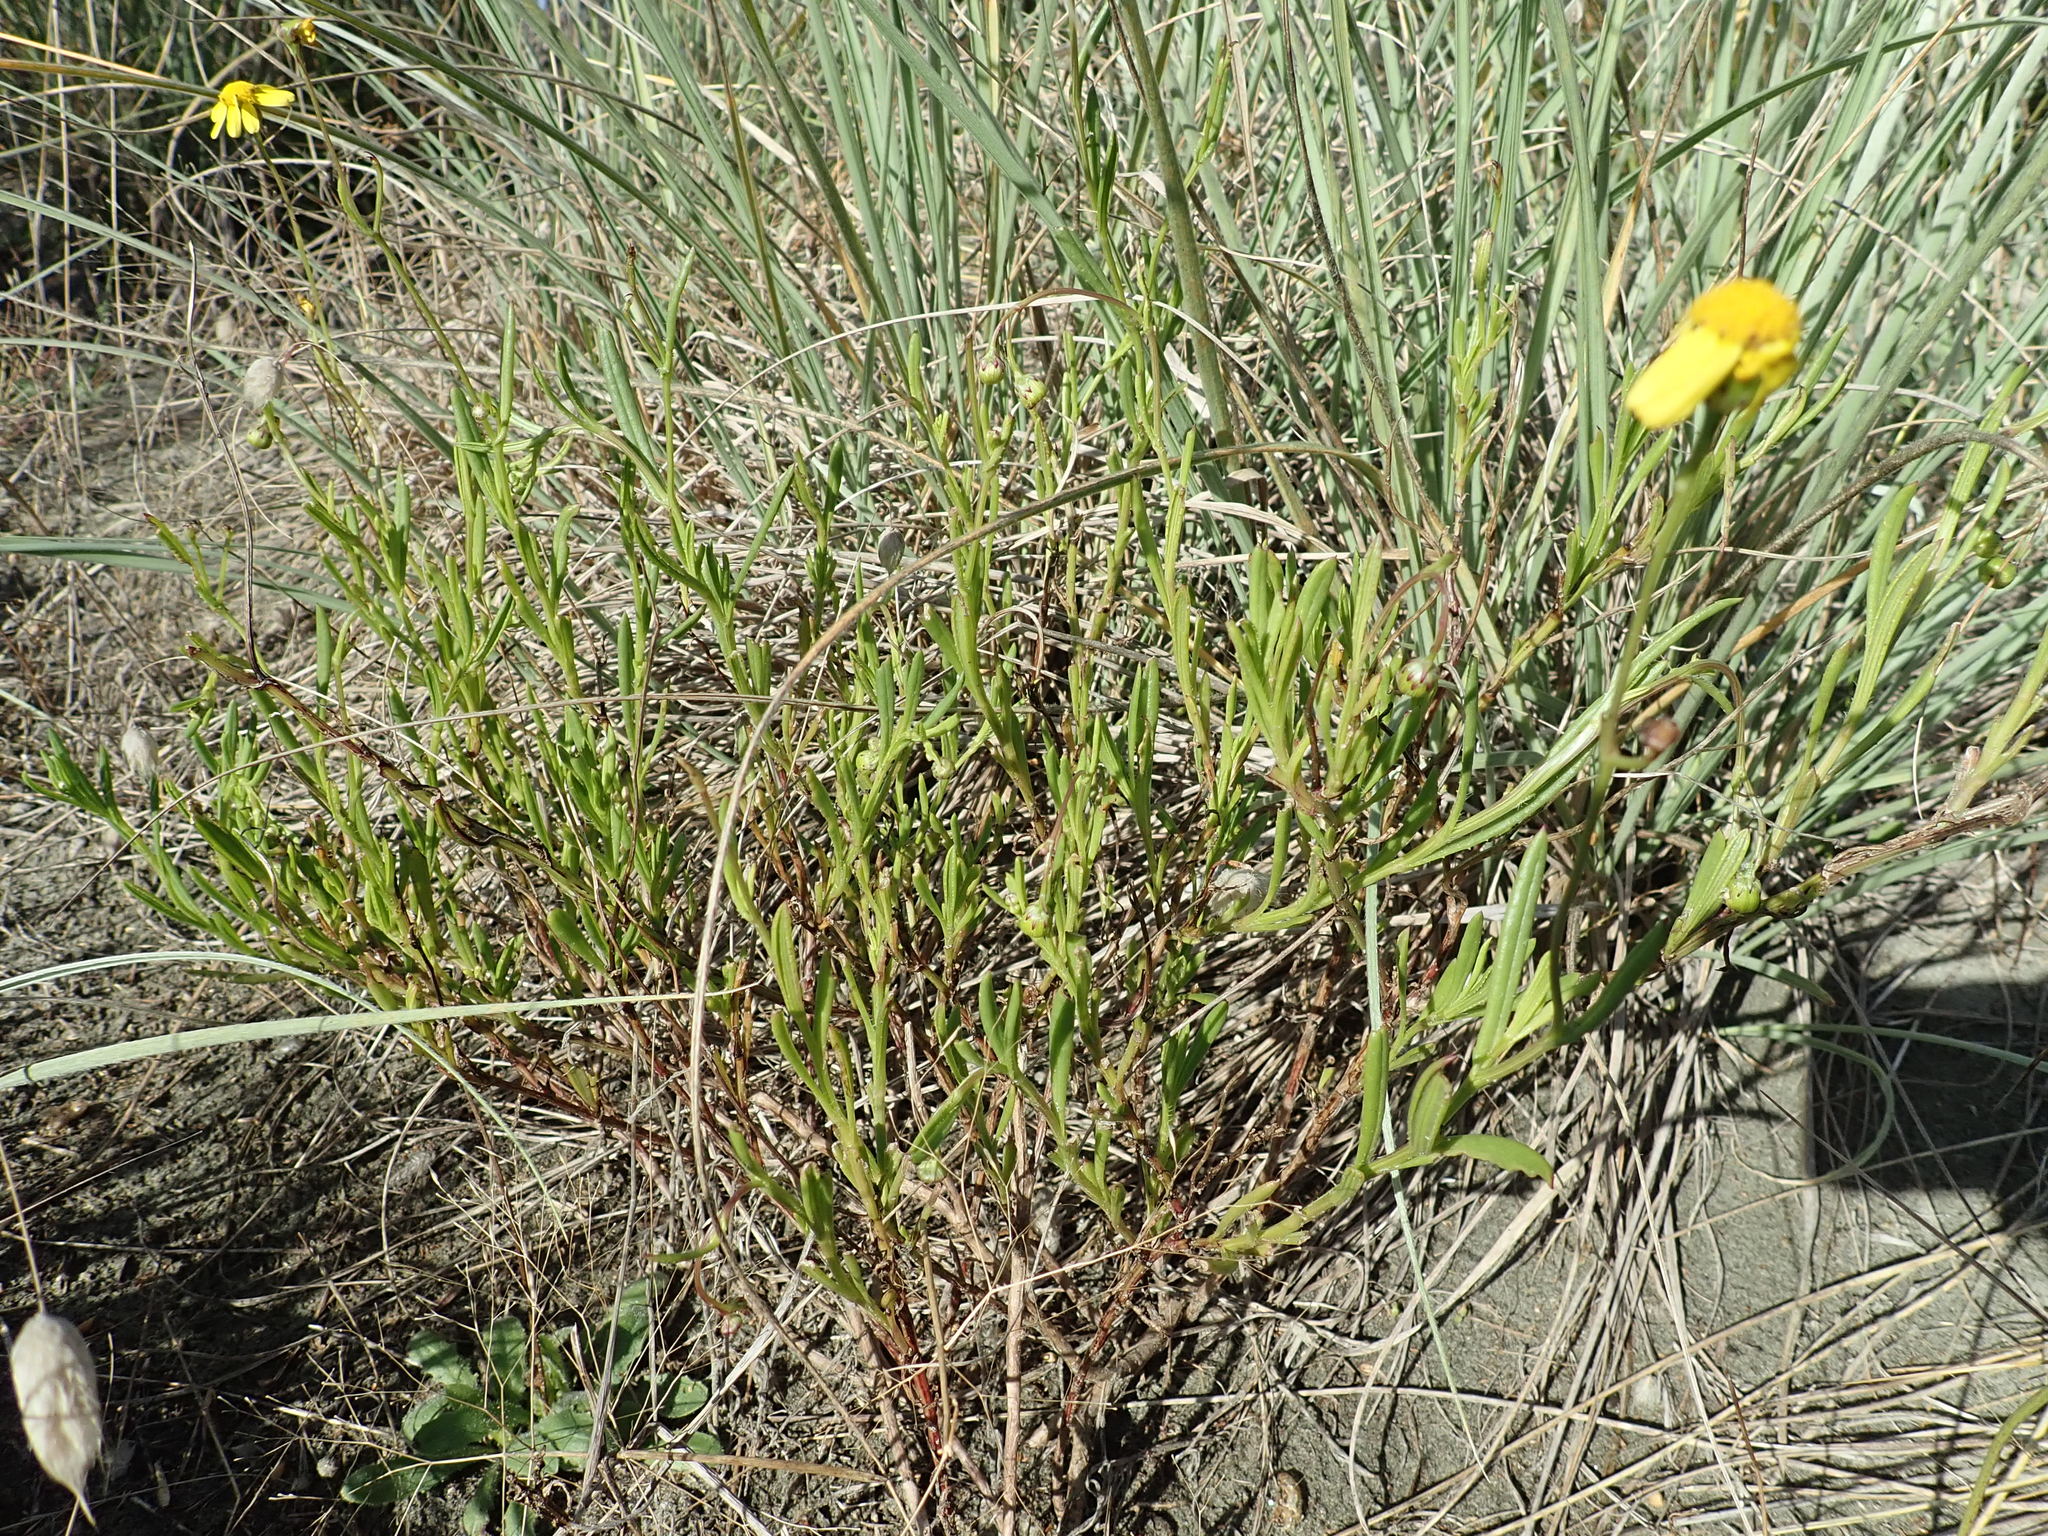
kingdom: Plantae
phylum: Tracheophyta
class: Magnoliopsida
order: Asterales
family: Asteraceae
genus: Senecio
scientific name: Senecio skirrhodon
